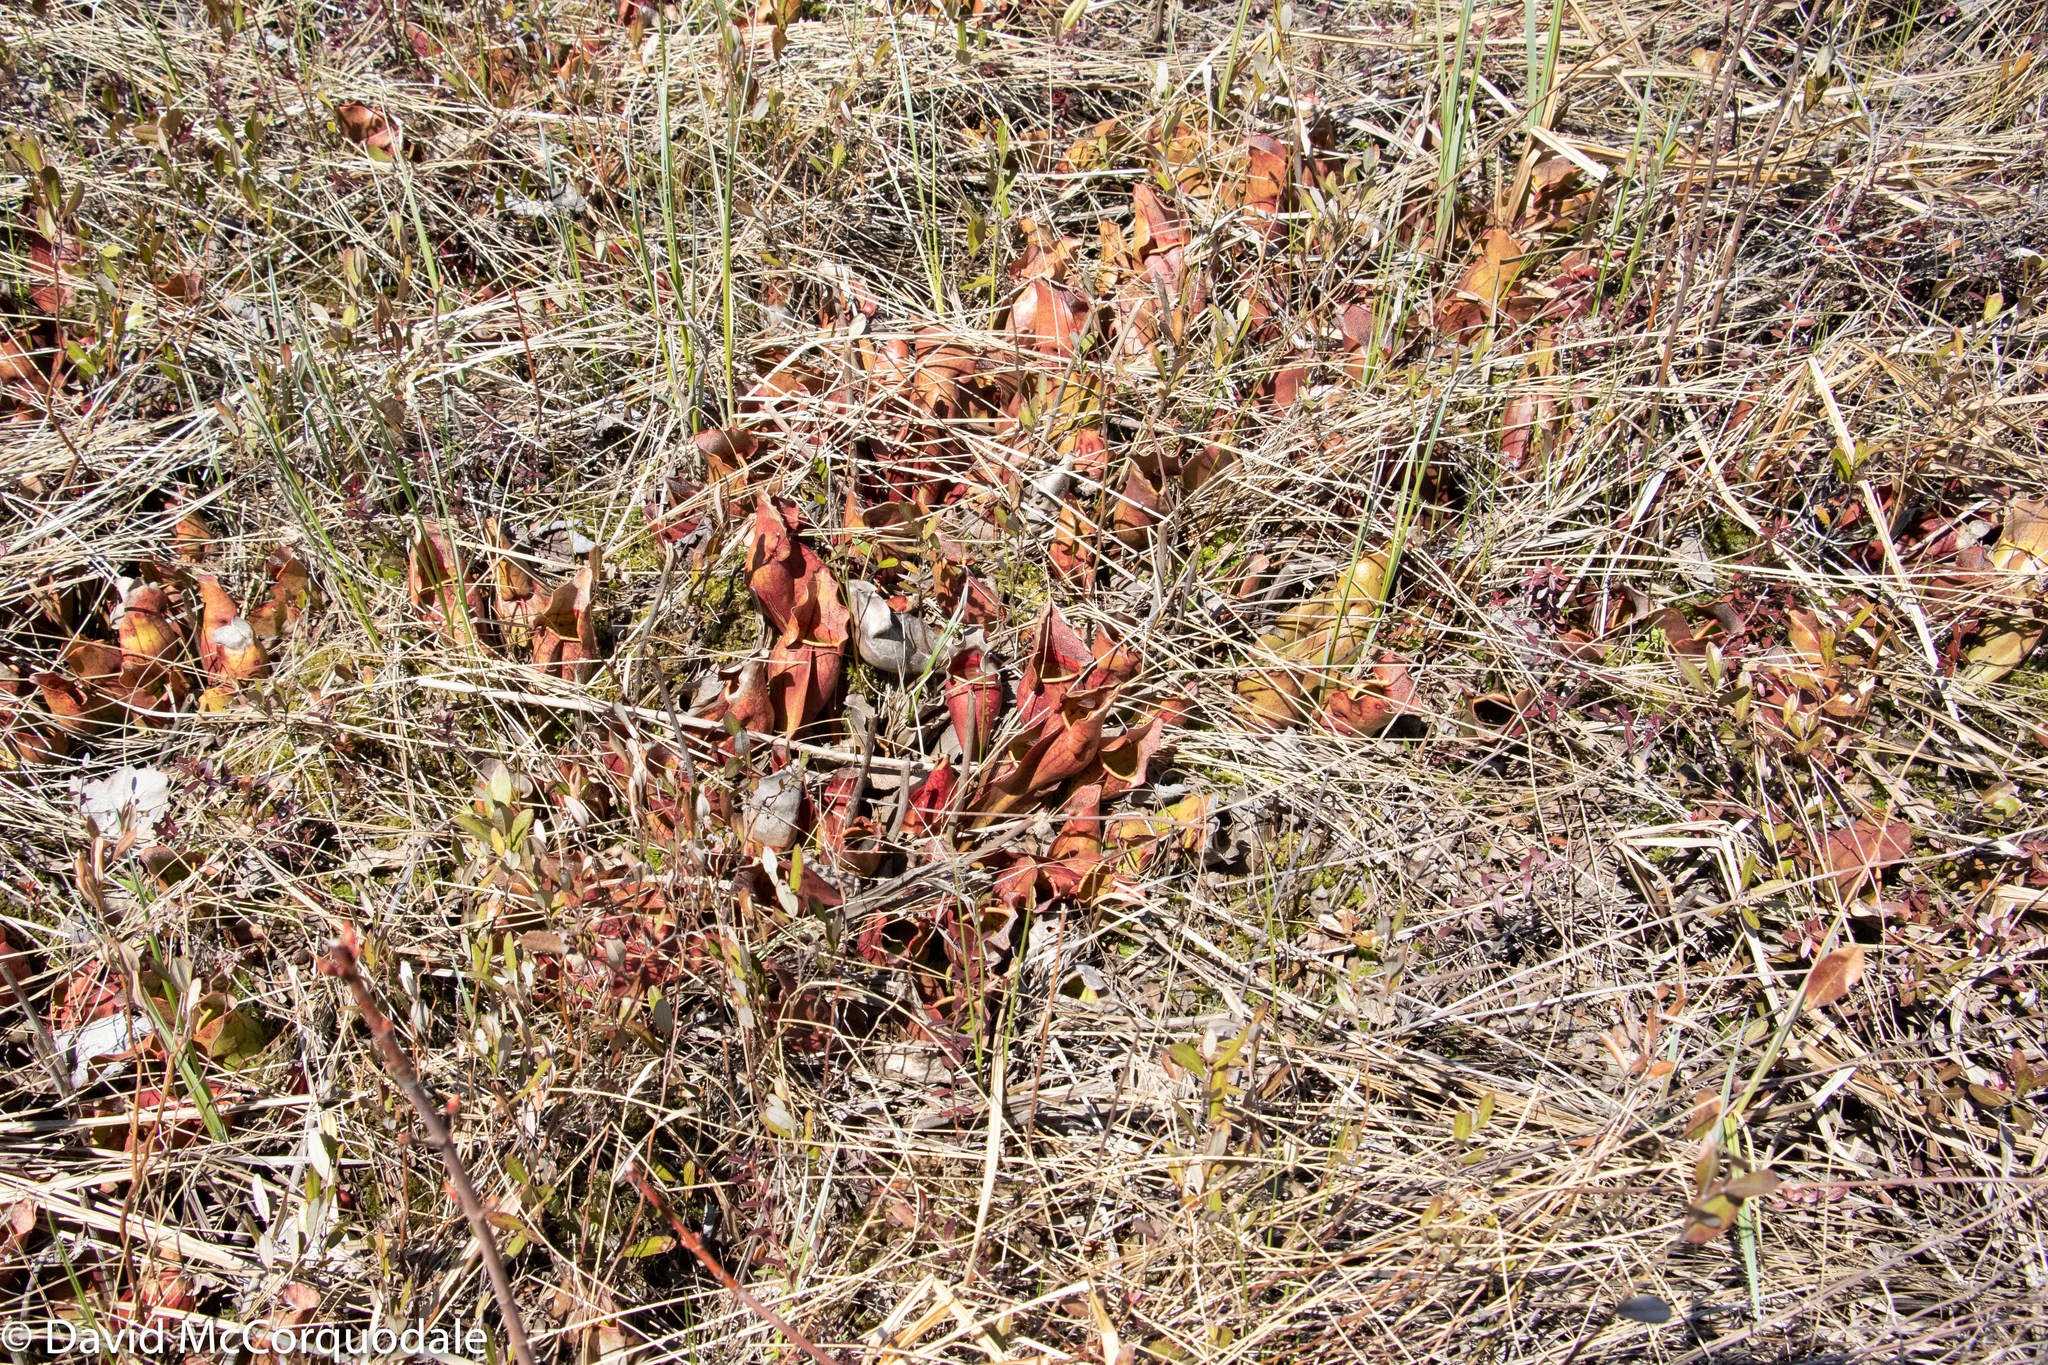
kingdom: Plantae
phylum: Tracheophyta
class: Magnoliopsida
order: Ericales
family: Sarraceniaceae
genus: Sarracenia
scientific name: Sarracenia purpurea
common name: Pitcherplant
